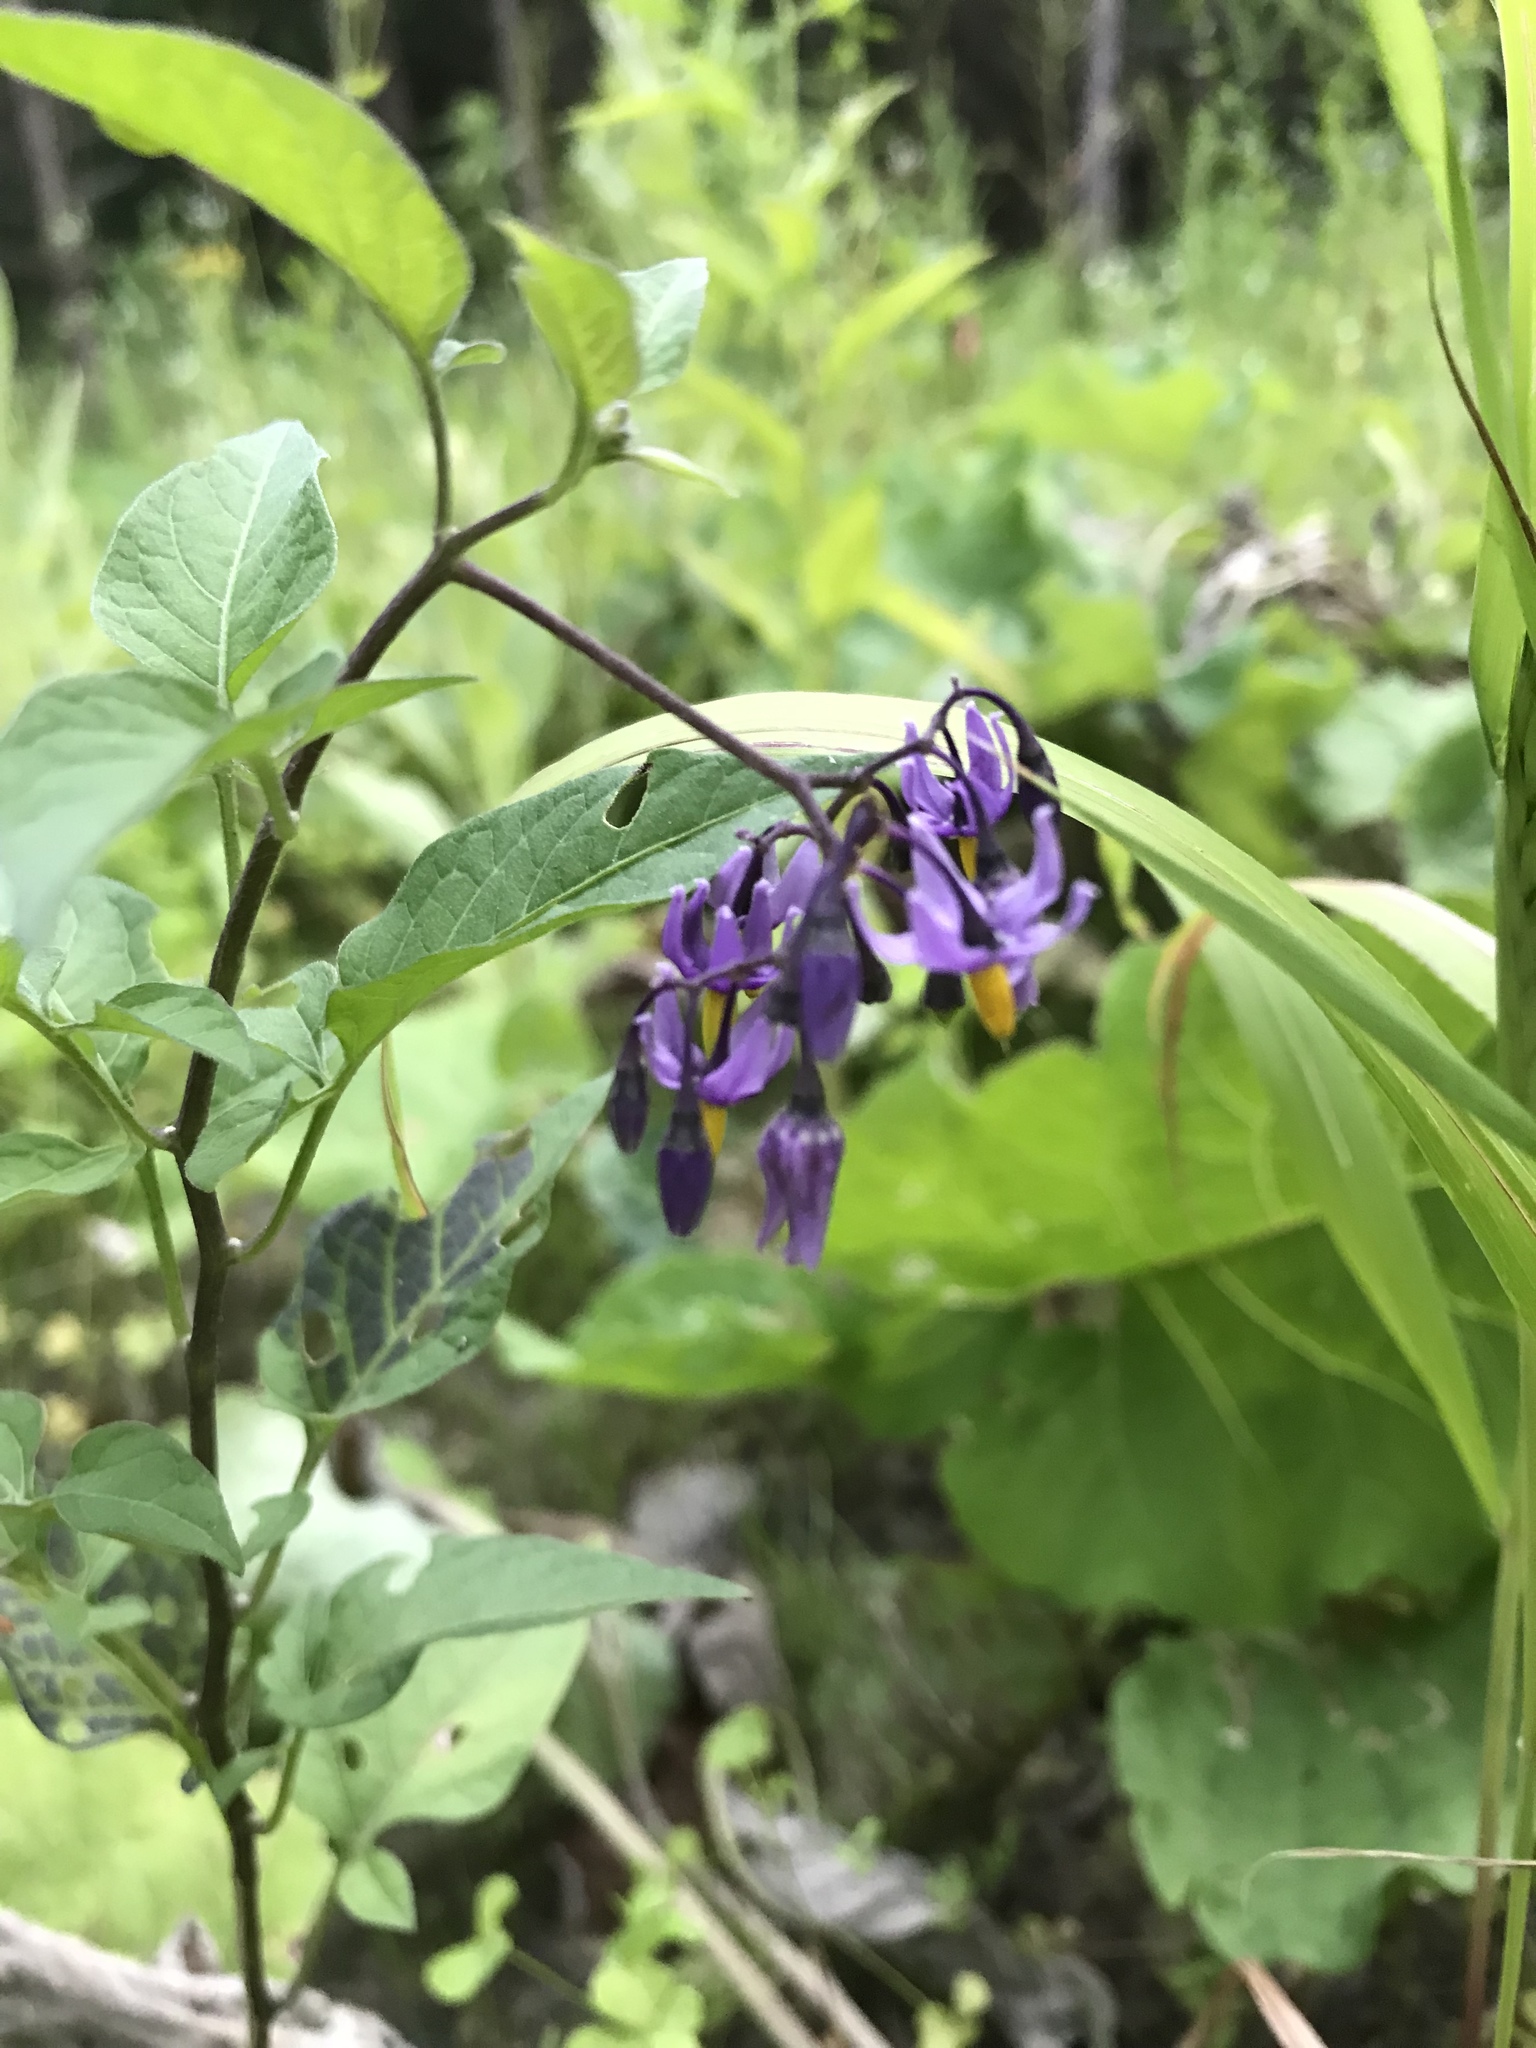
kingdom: Plantae
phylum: Tracheophyta
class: Magnoliopsida
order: Solanales
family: Solanaceae
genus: Solanum
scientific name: Solanum dulcamara
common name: Climbing nightshade
